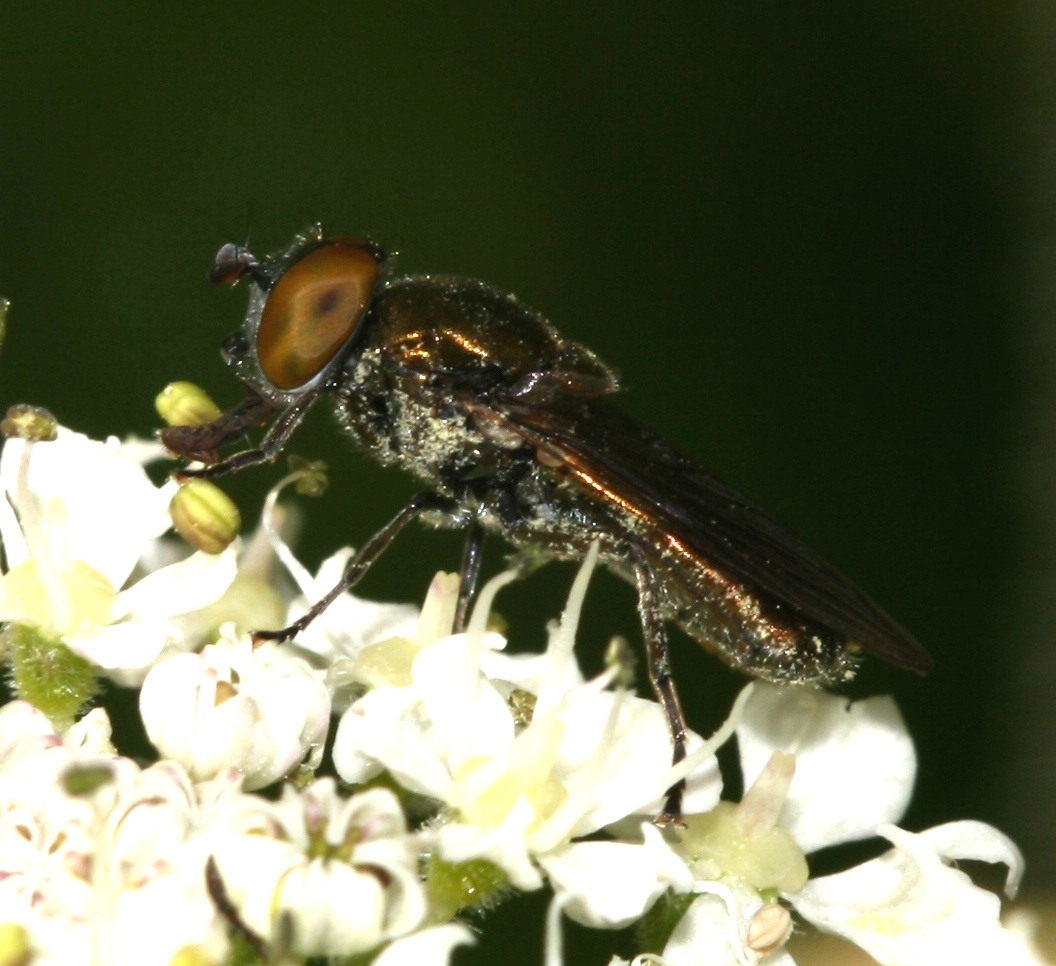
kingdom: Animalia
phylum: Arthropoda
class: Insecta
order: Diptera
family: Syrphidae
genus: Orthonevra
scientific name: Orthonevra splendens
